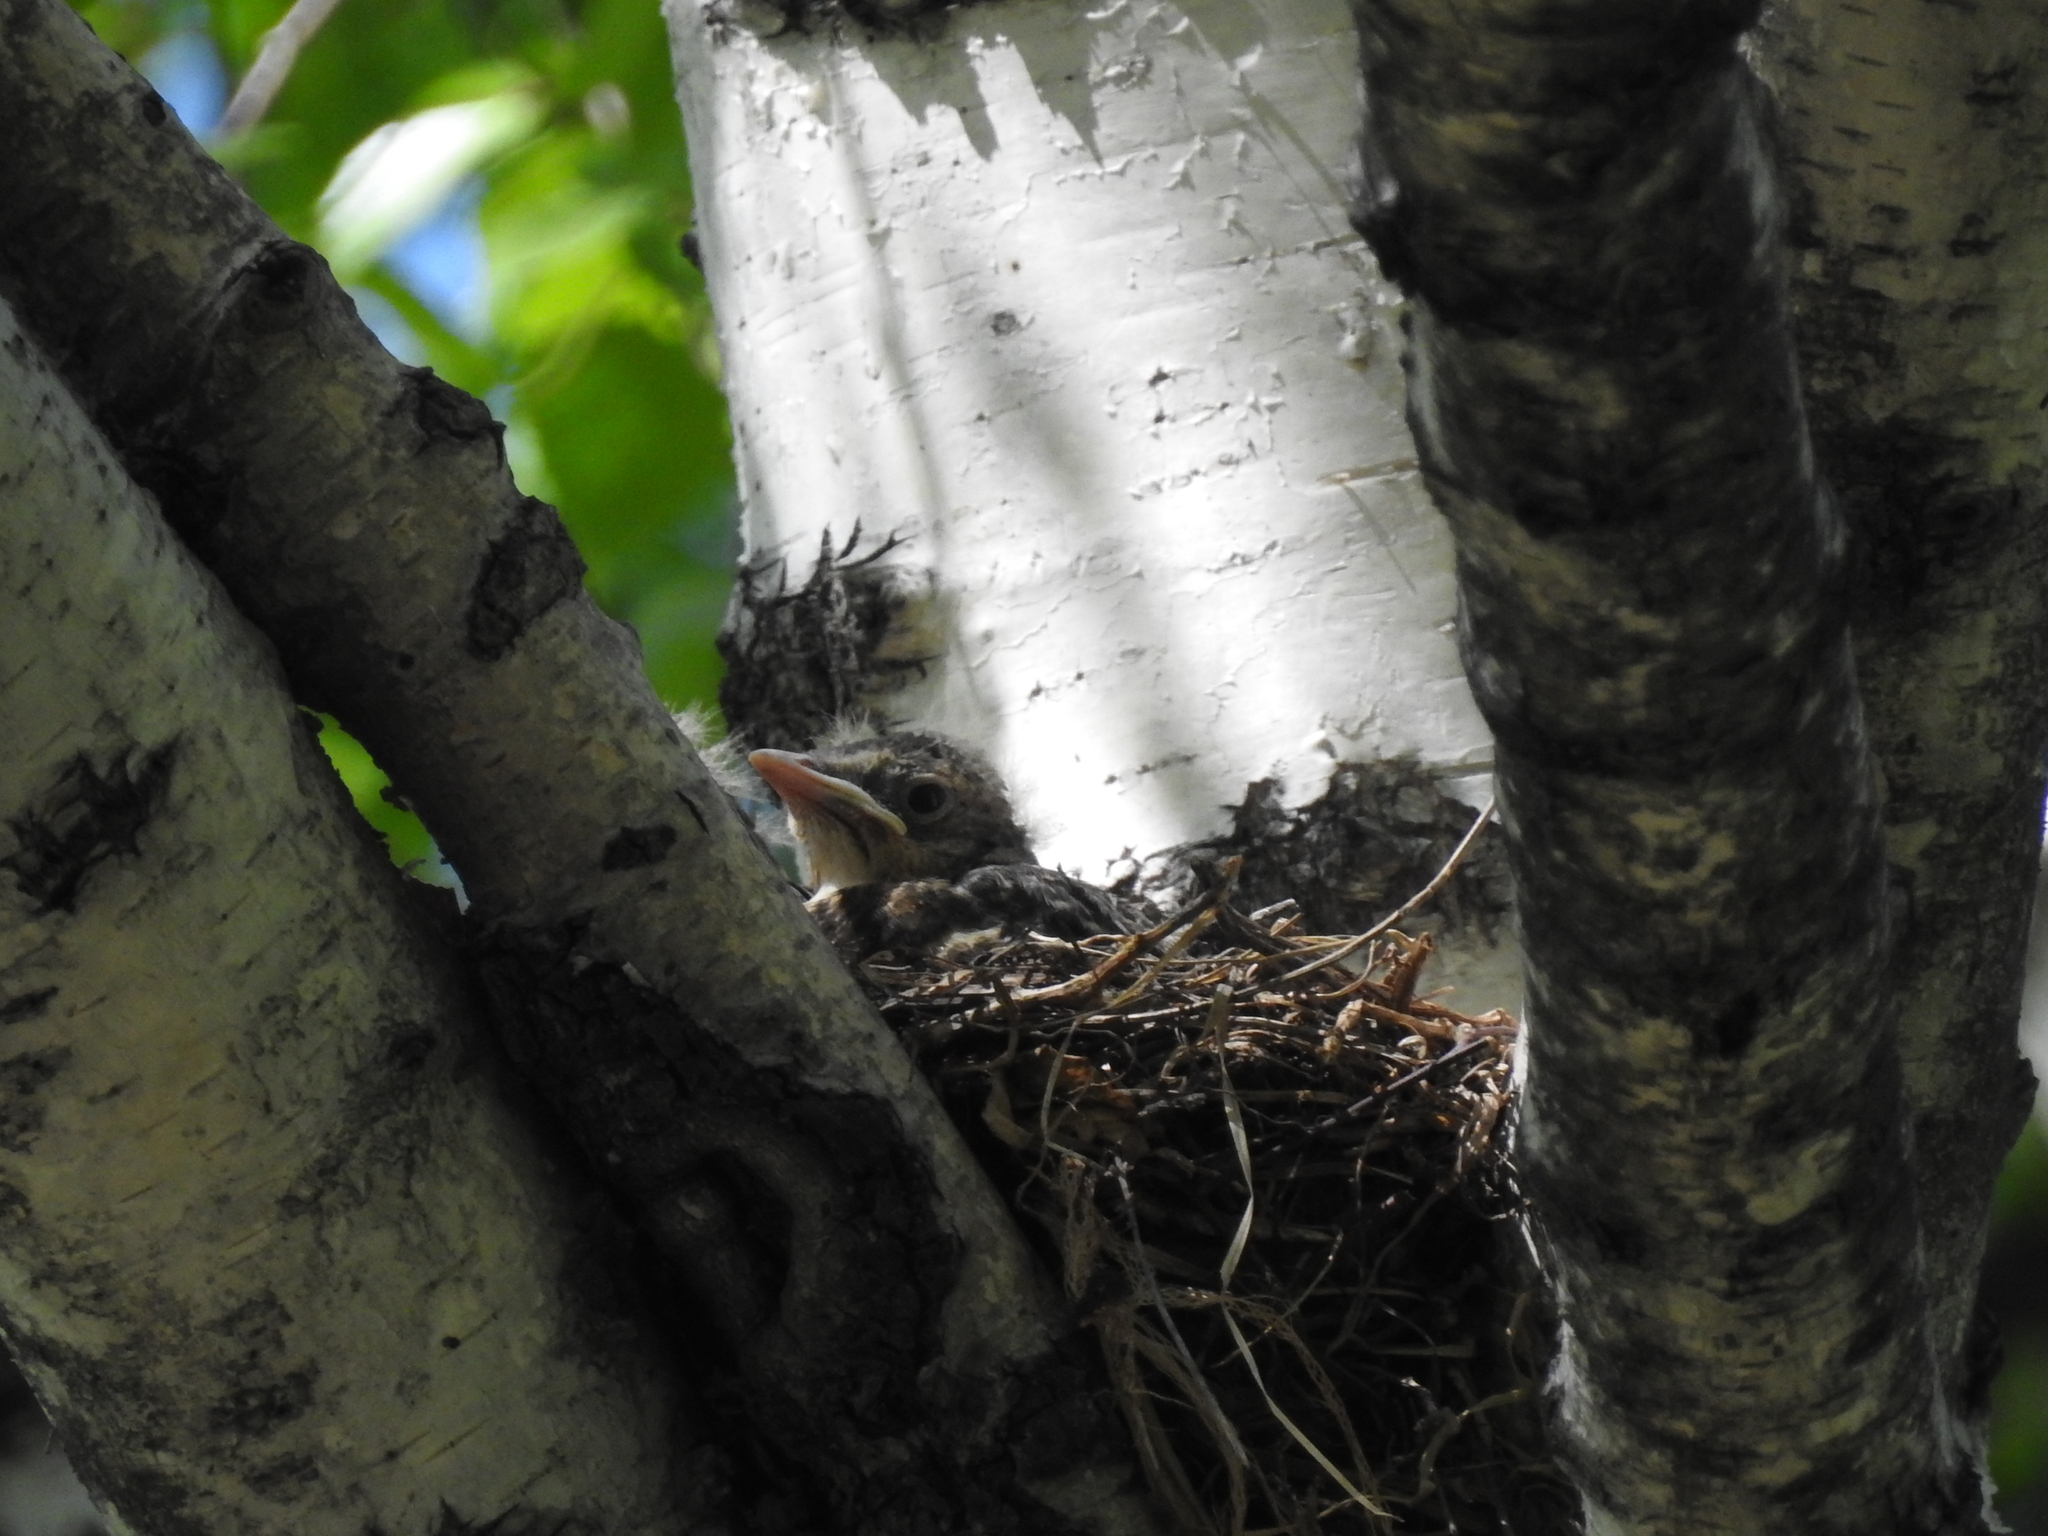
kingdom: Animalia
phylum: Chordata
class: Aves
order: Passeriformes
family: Turdidae
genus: Turdus
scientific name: Turdus pilaris
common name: Fieldfare
